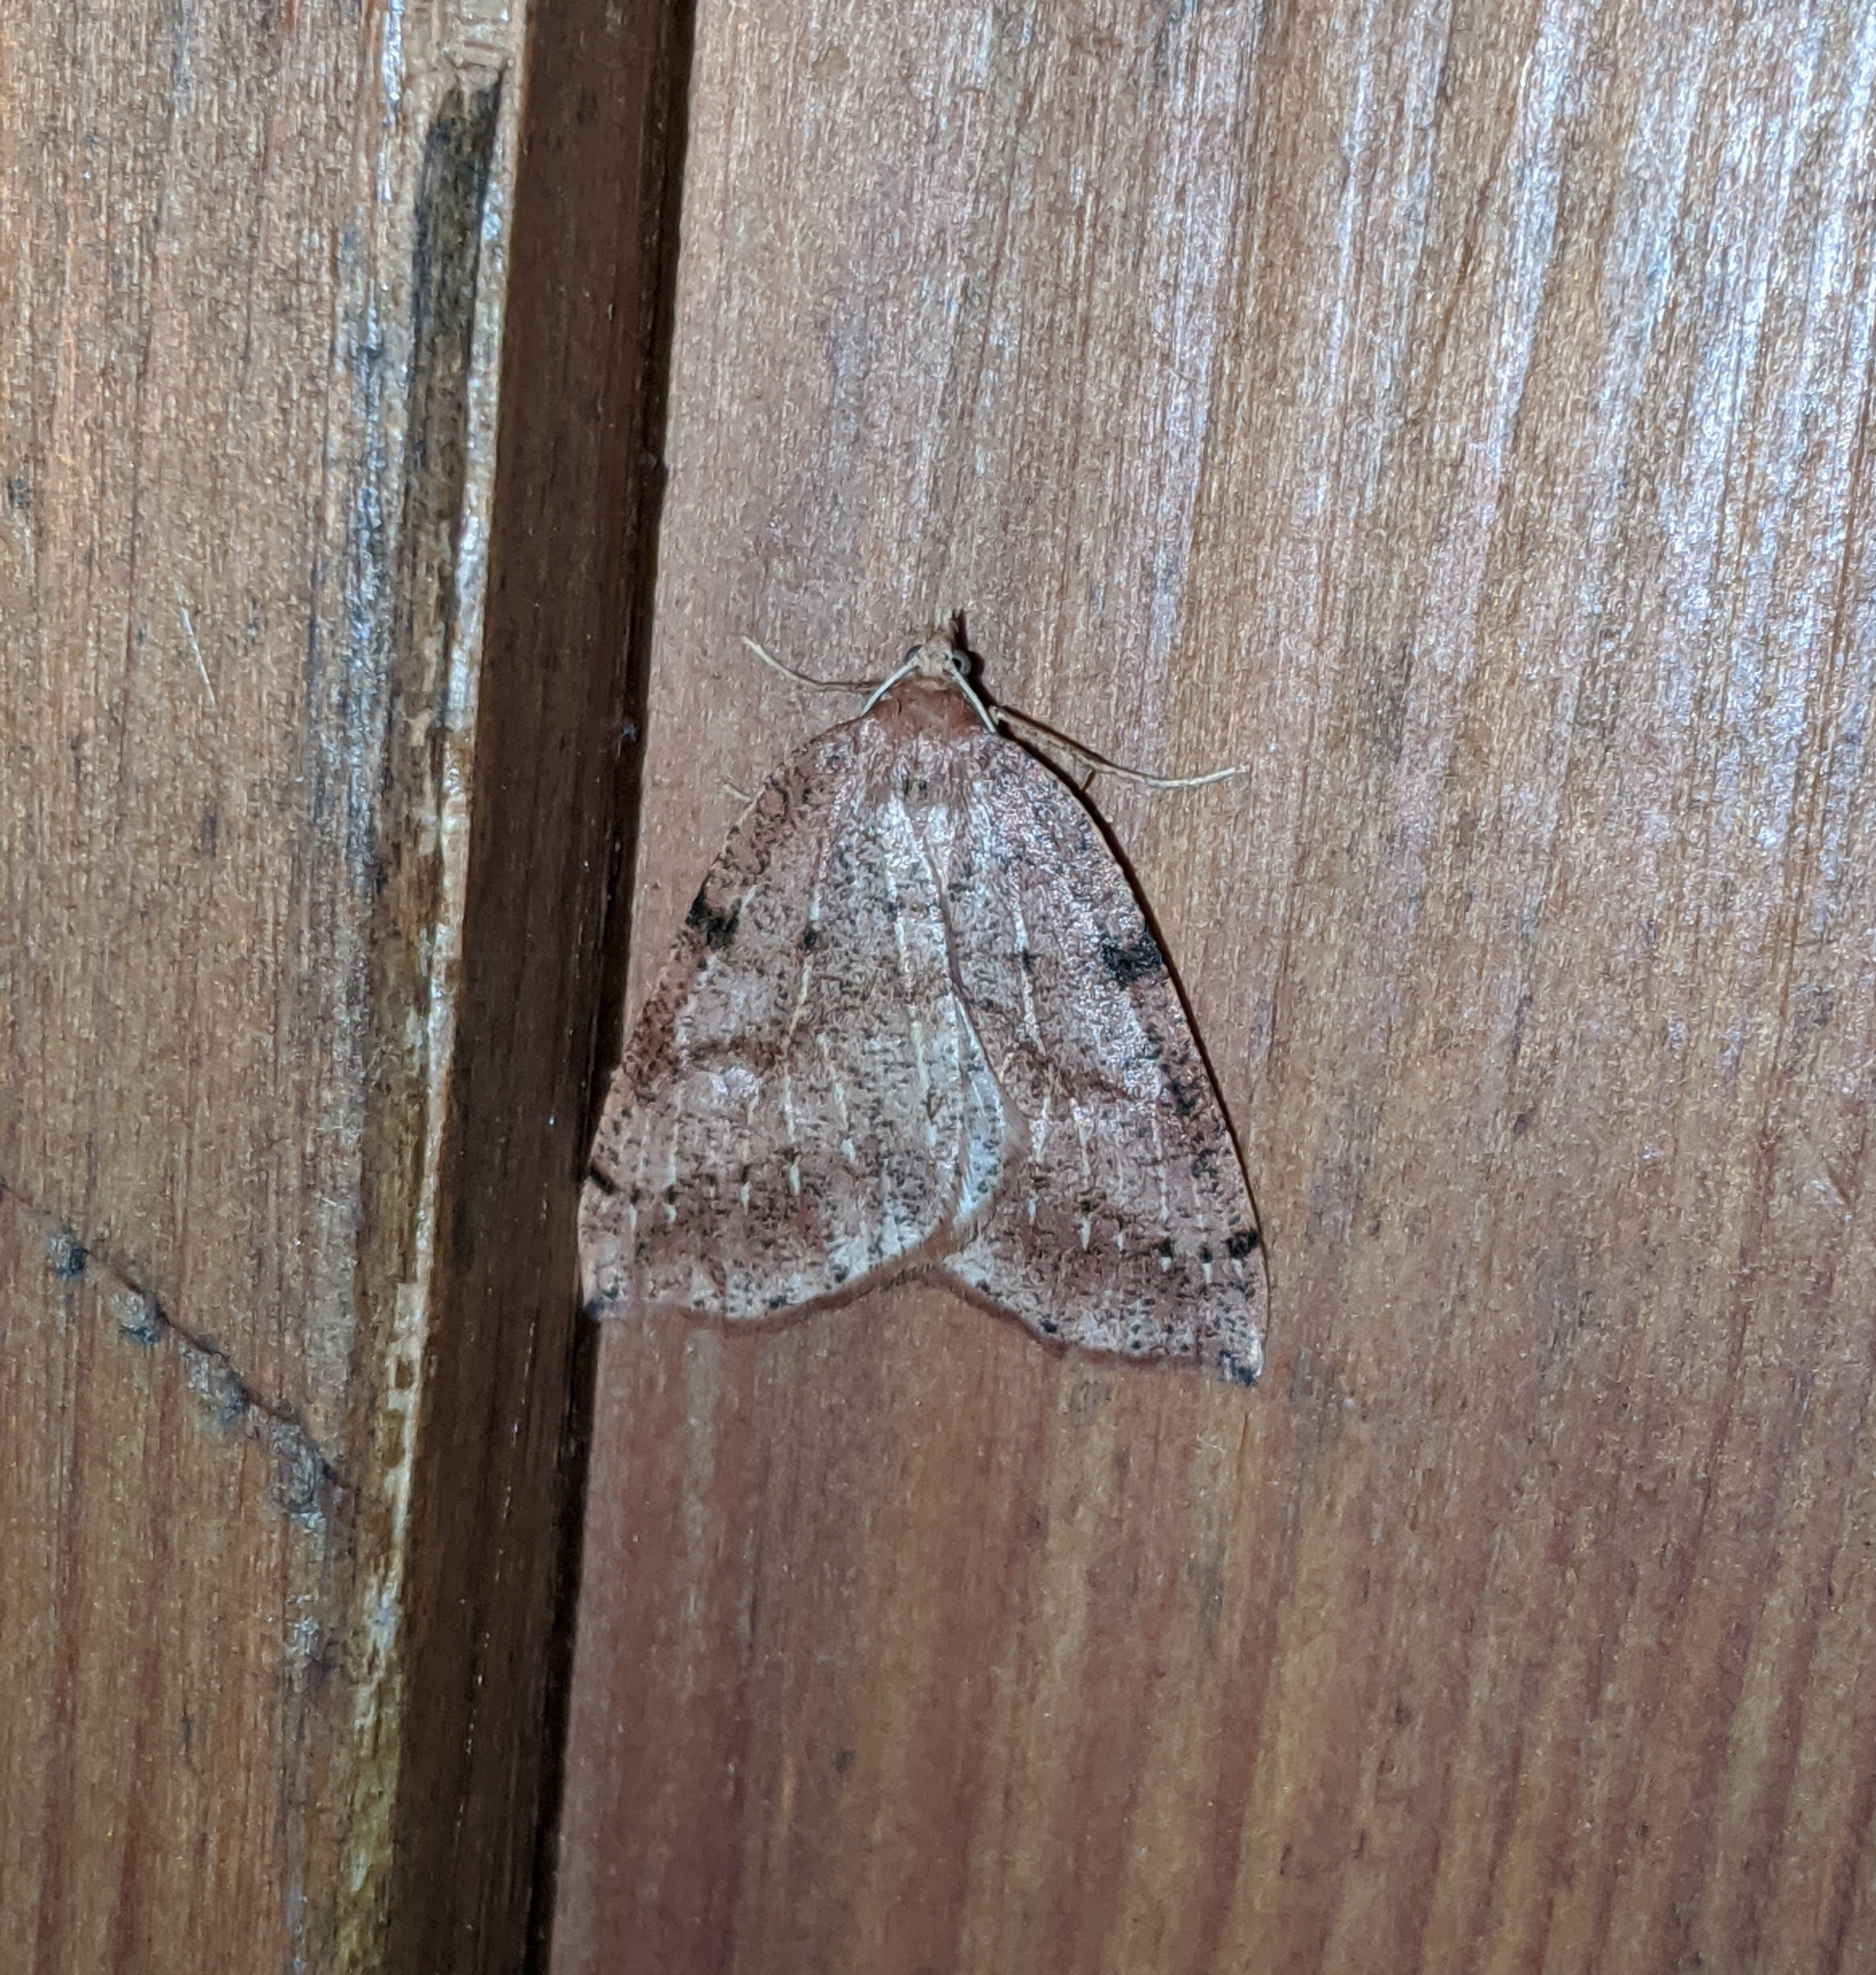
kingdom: Animalia
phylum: Arthropoda
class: Insecta
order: Lepidoptera
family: Geometridae
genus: Thallophaga
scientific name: Thallophaga hyperborea
